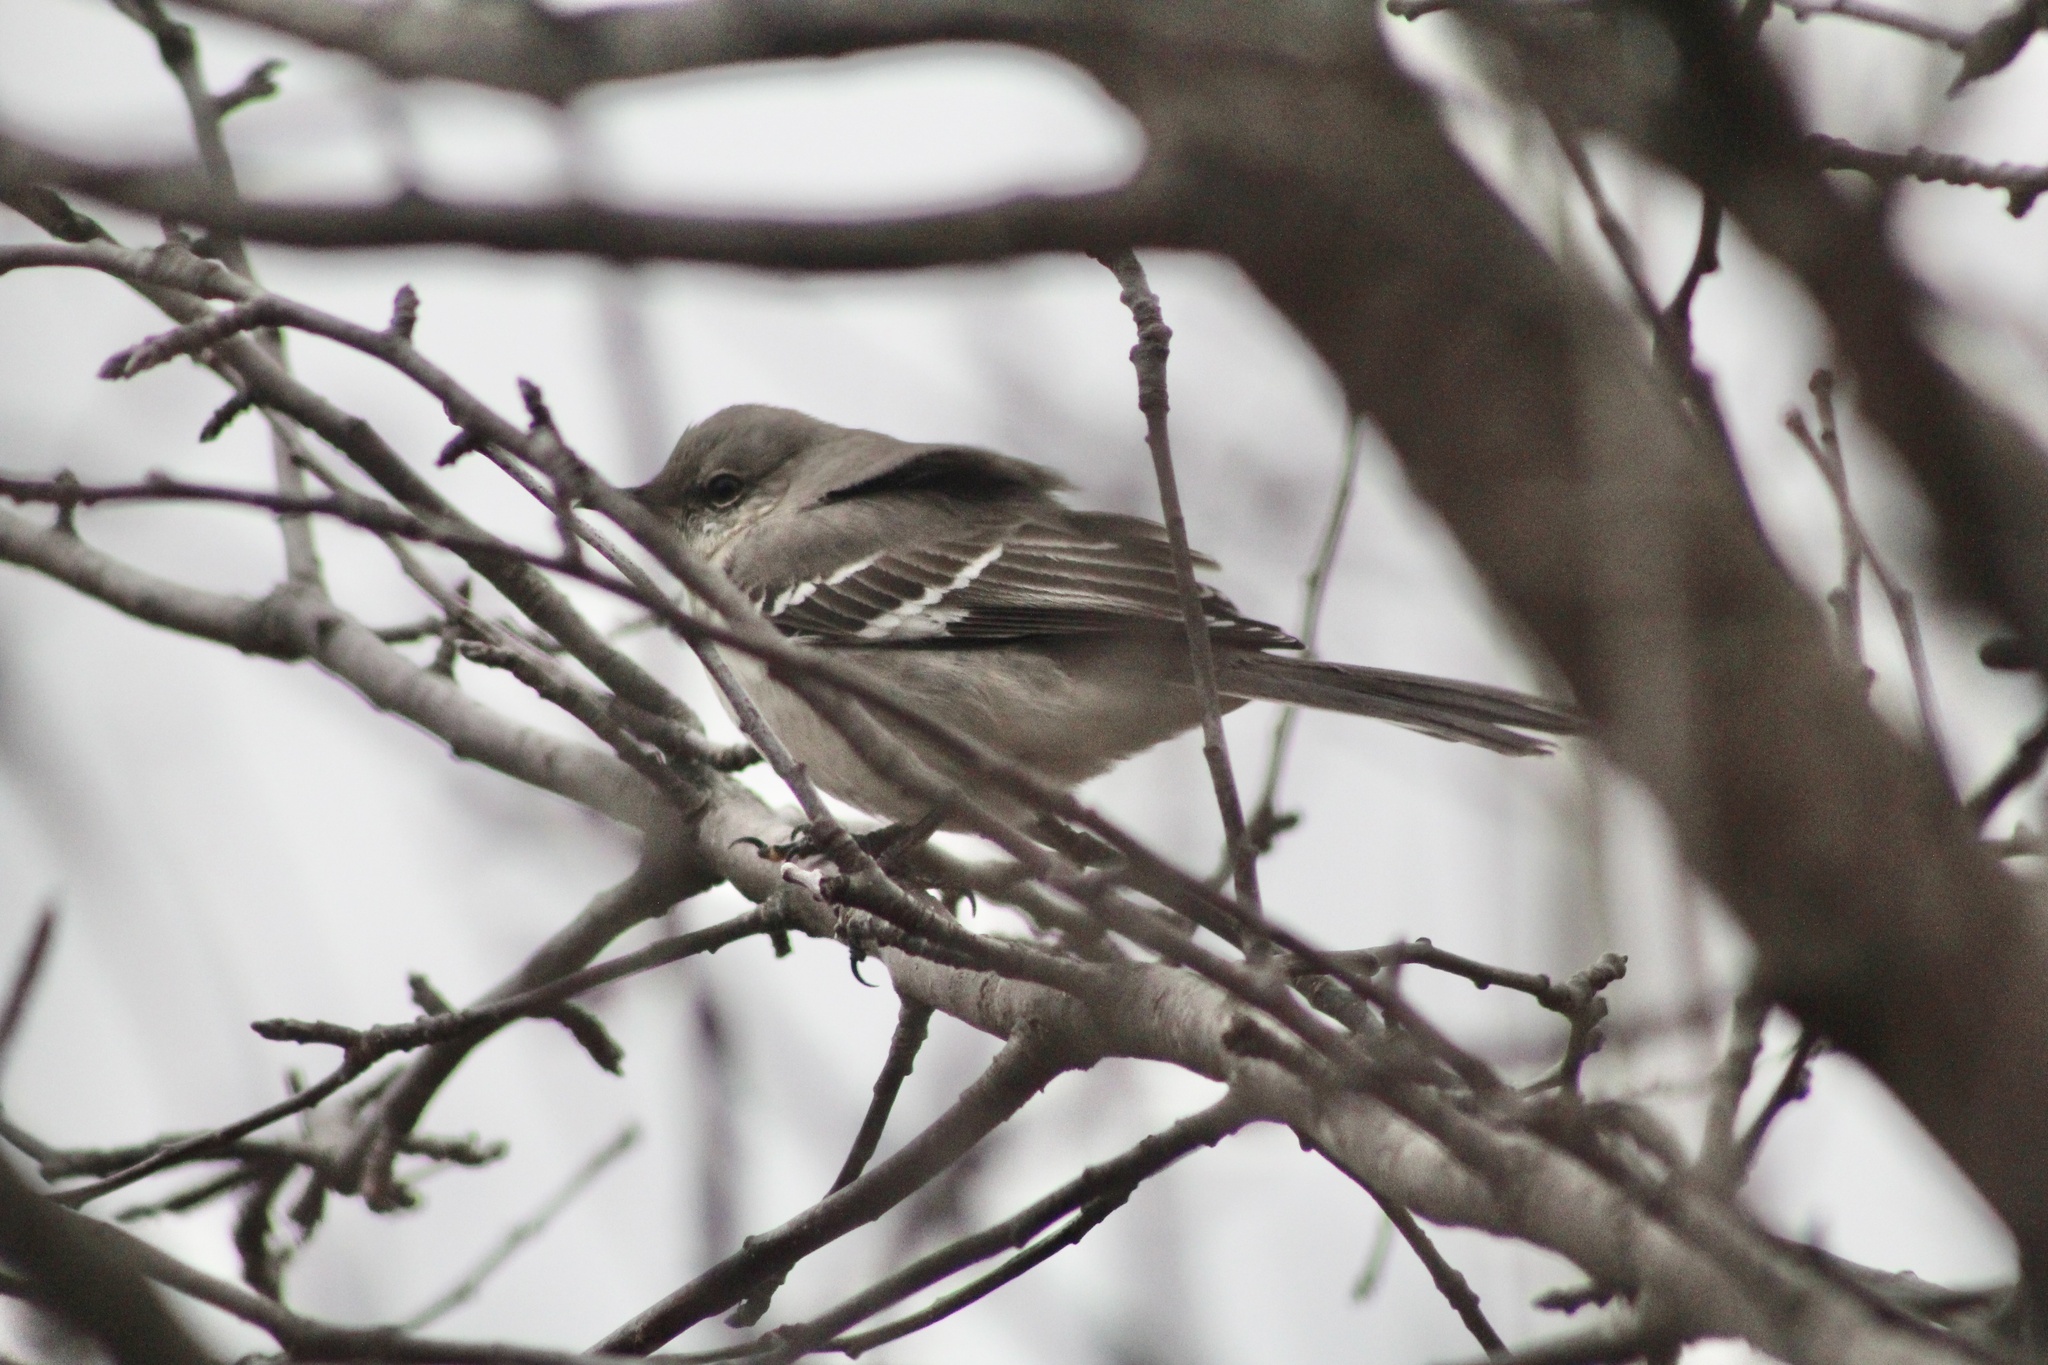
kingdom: Animalia
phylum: Chordata
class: Aves
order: Passeriformes
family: Mimidae
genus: Mimus
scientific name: Mimus polyglottos
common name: Northern mockingbird
